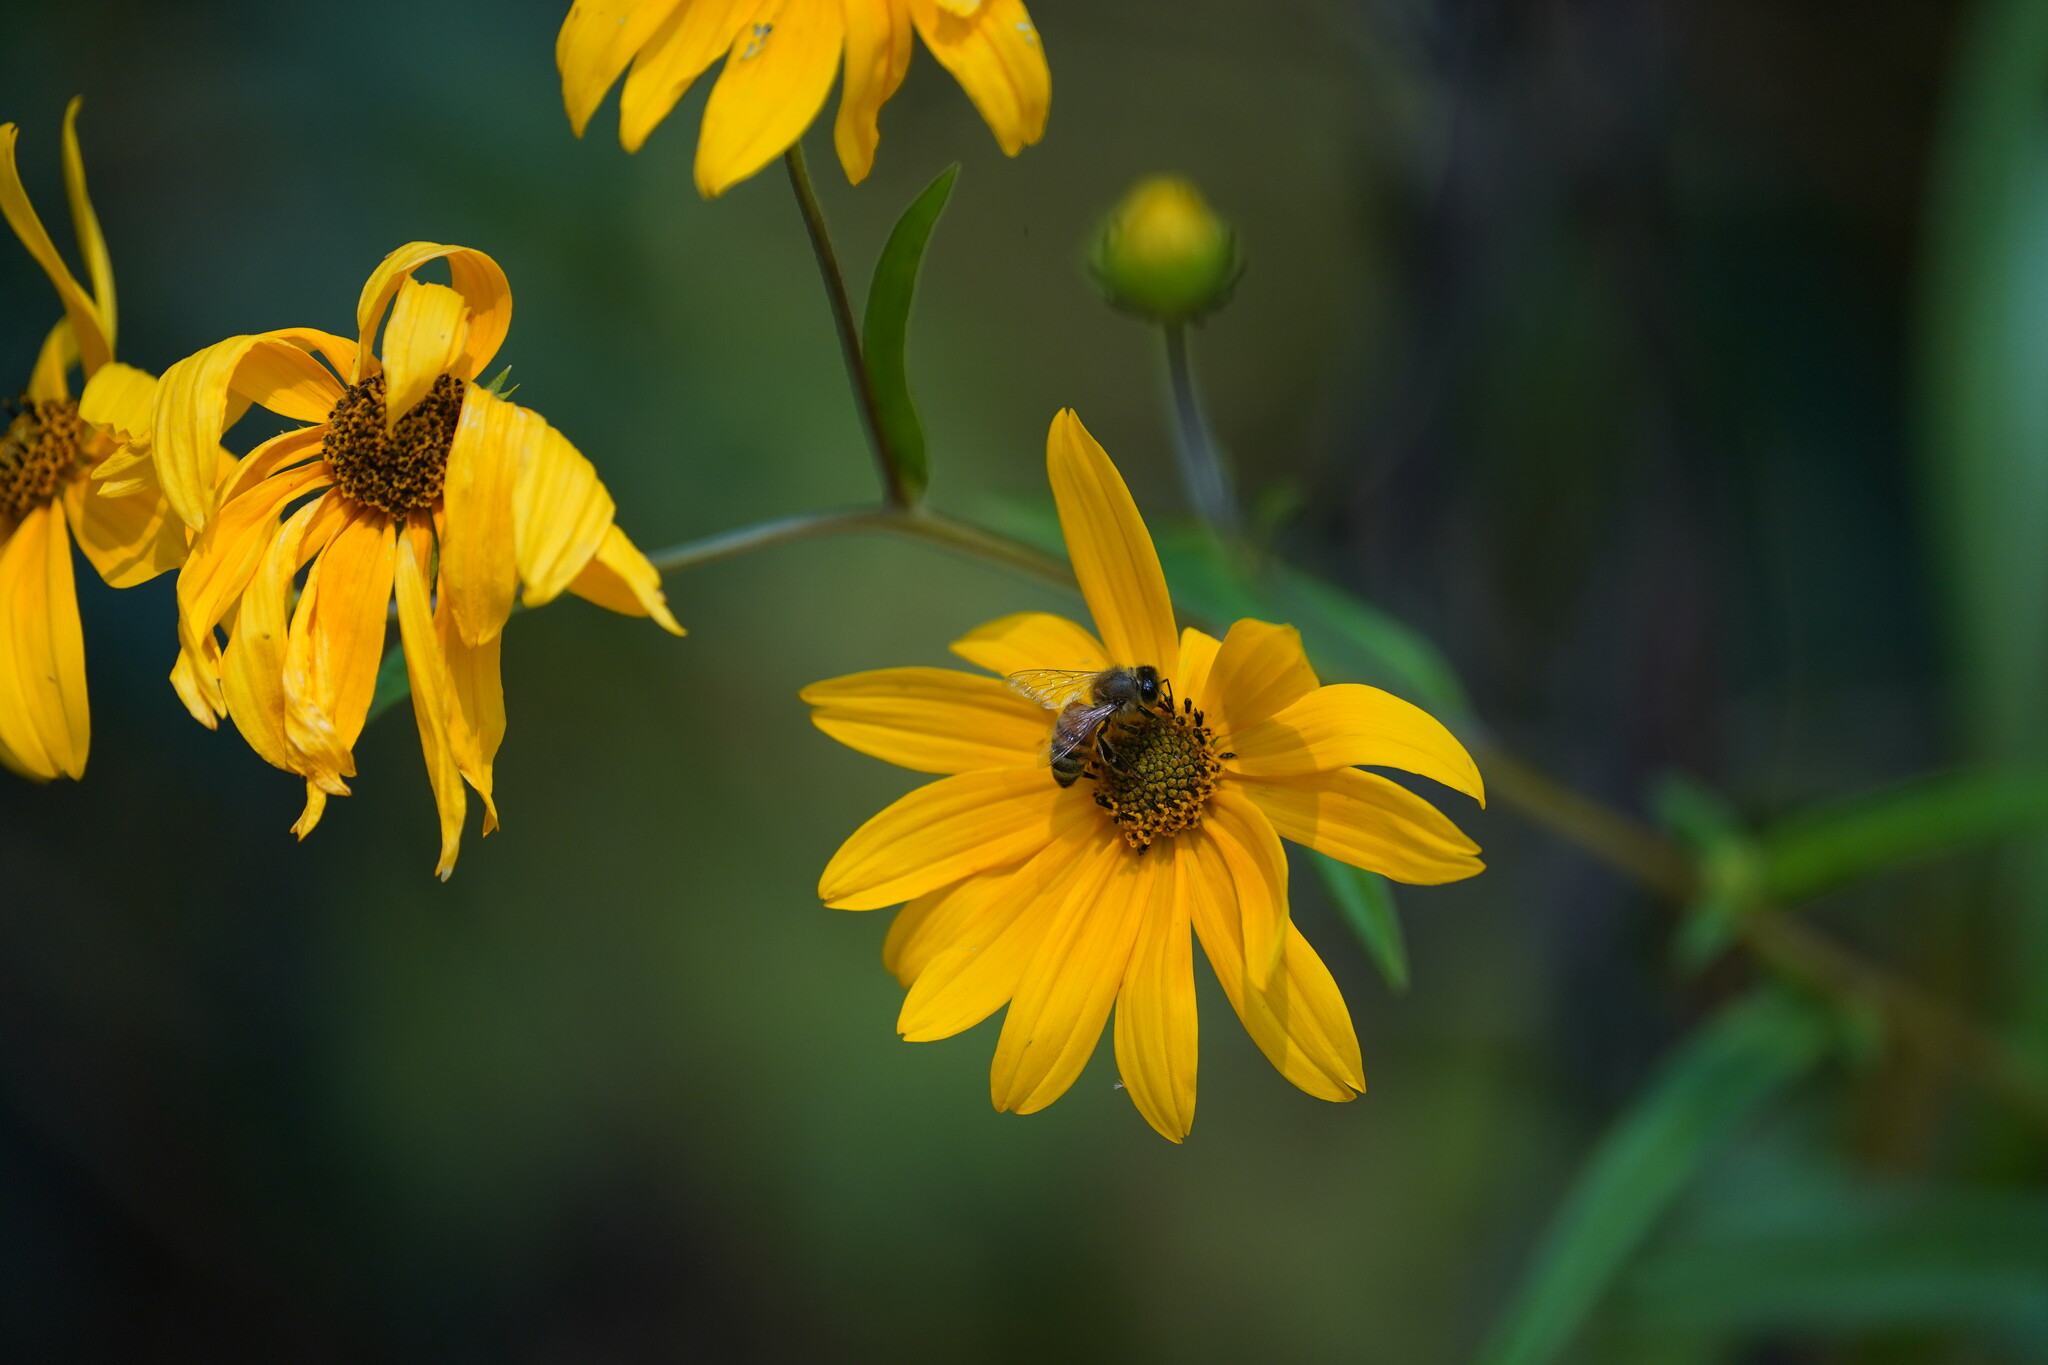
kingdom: Animalia
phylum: Arthropoda
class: Insecta
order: Hymenoptera
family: Apidae
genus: Apis
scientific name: Apis mellifera
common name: Honey bee
